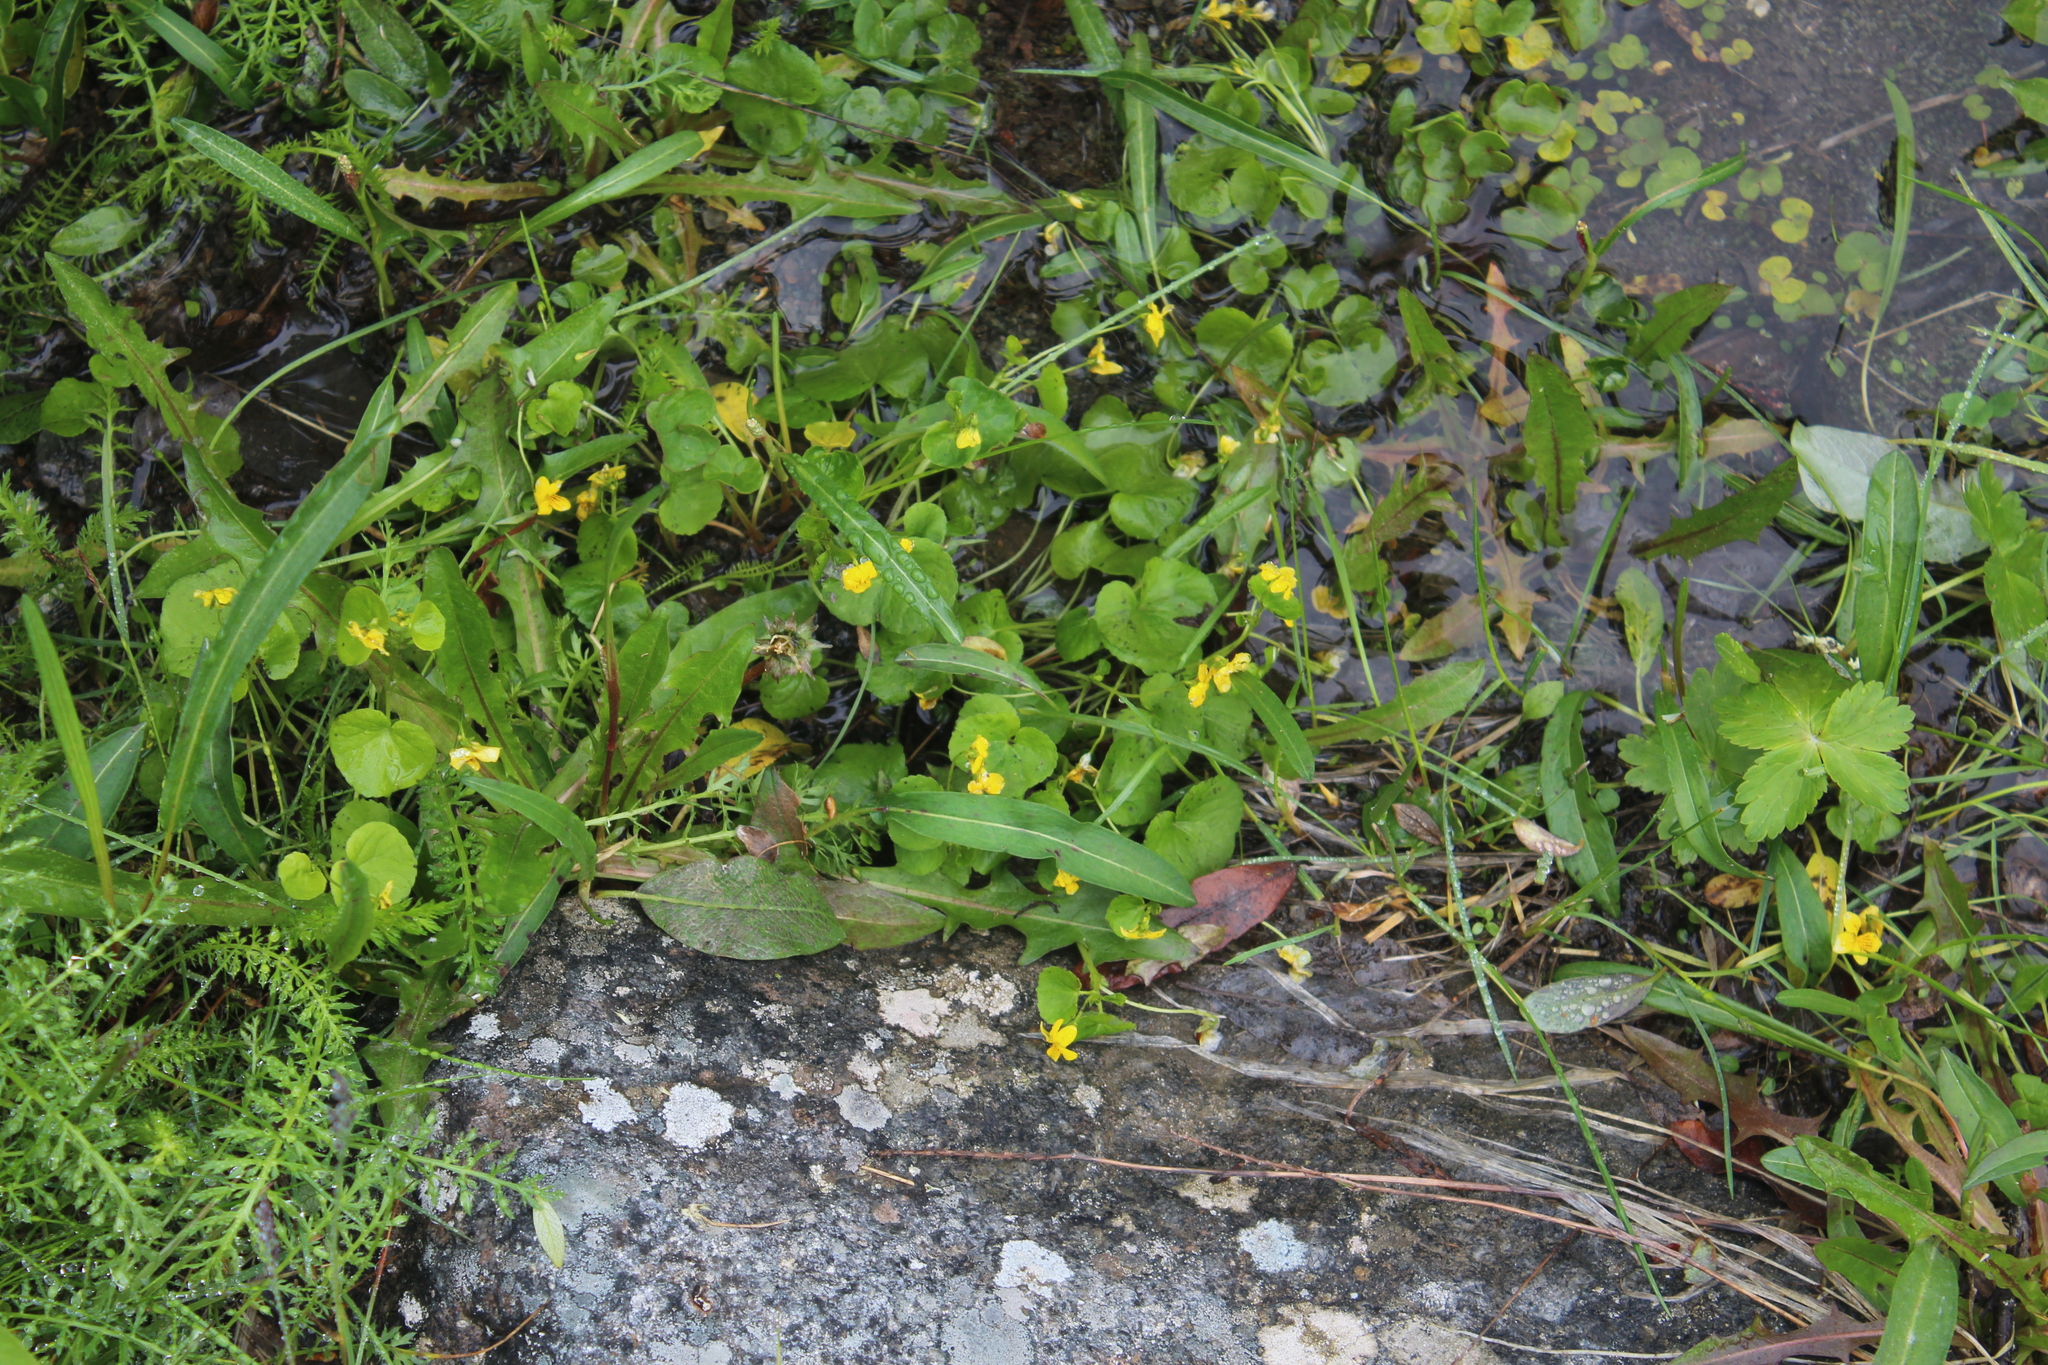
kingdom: Plantae
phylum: Tracheophyta
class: Magnoliopsida
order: Malpighiales
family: Violaceae
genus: Viola
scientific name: Viola biflora
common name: Alpine yellow violet
